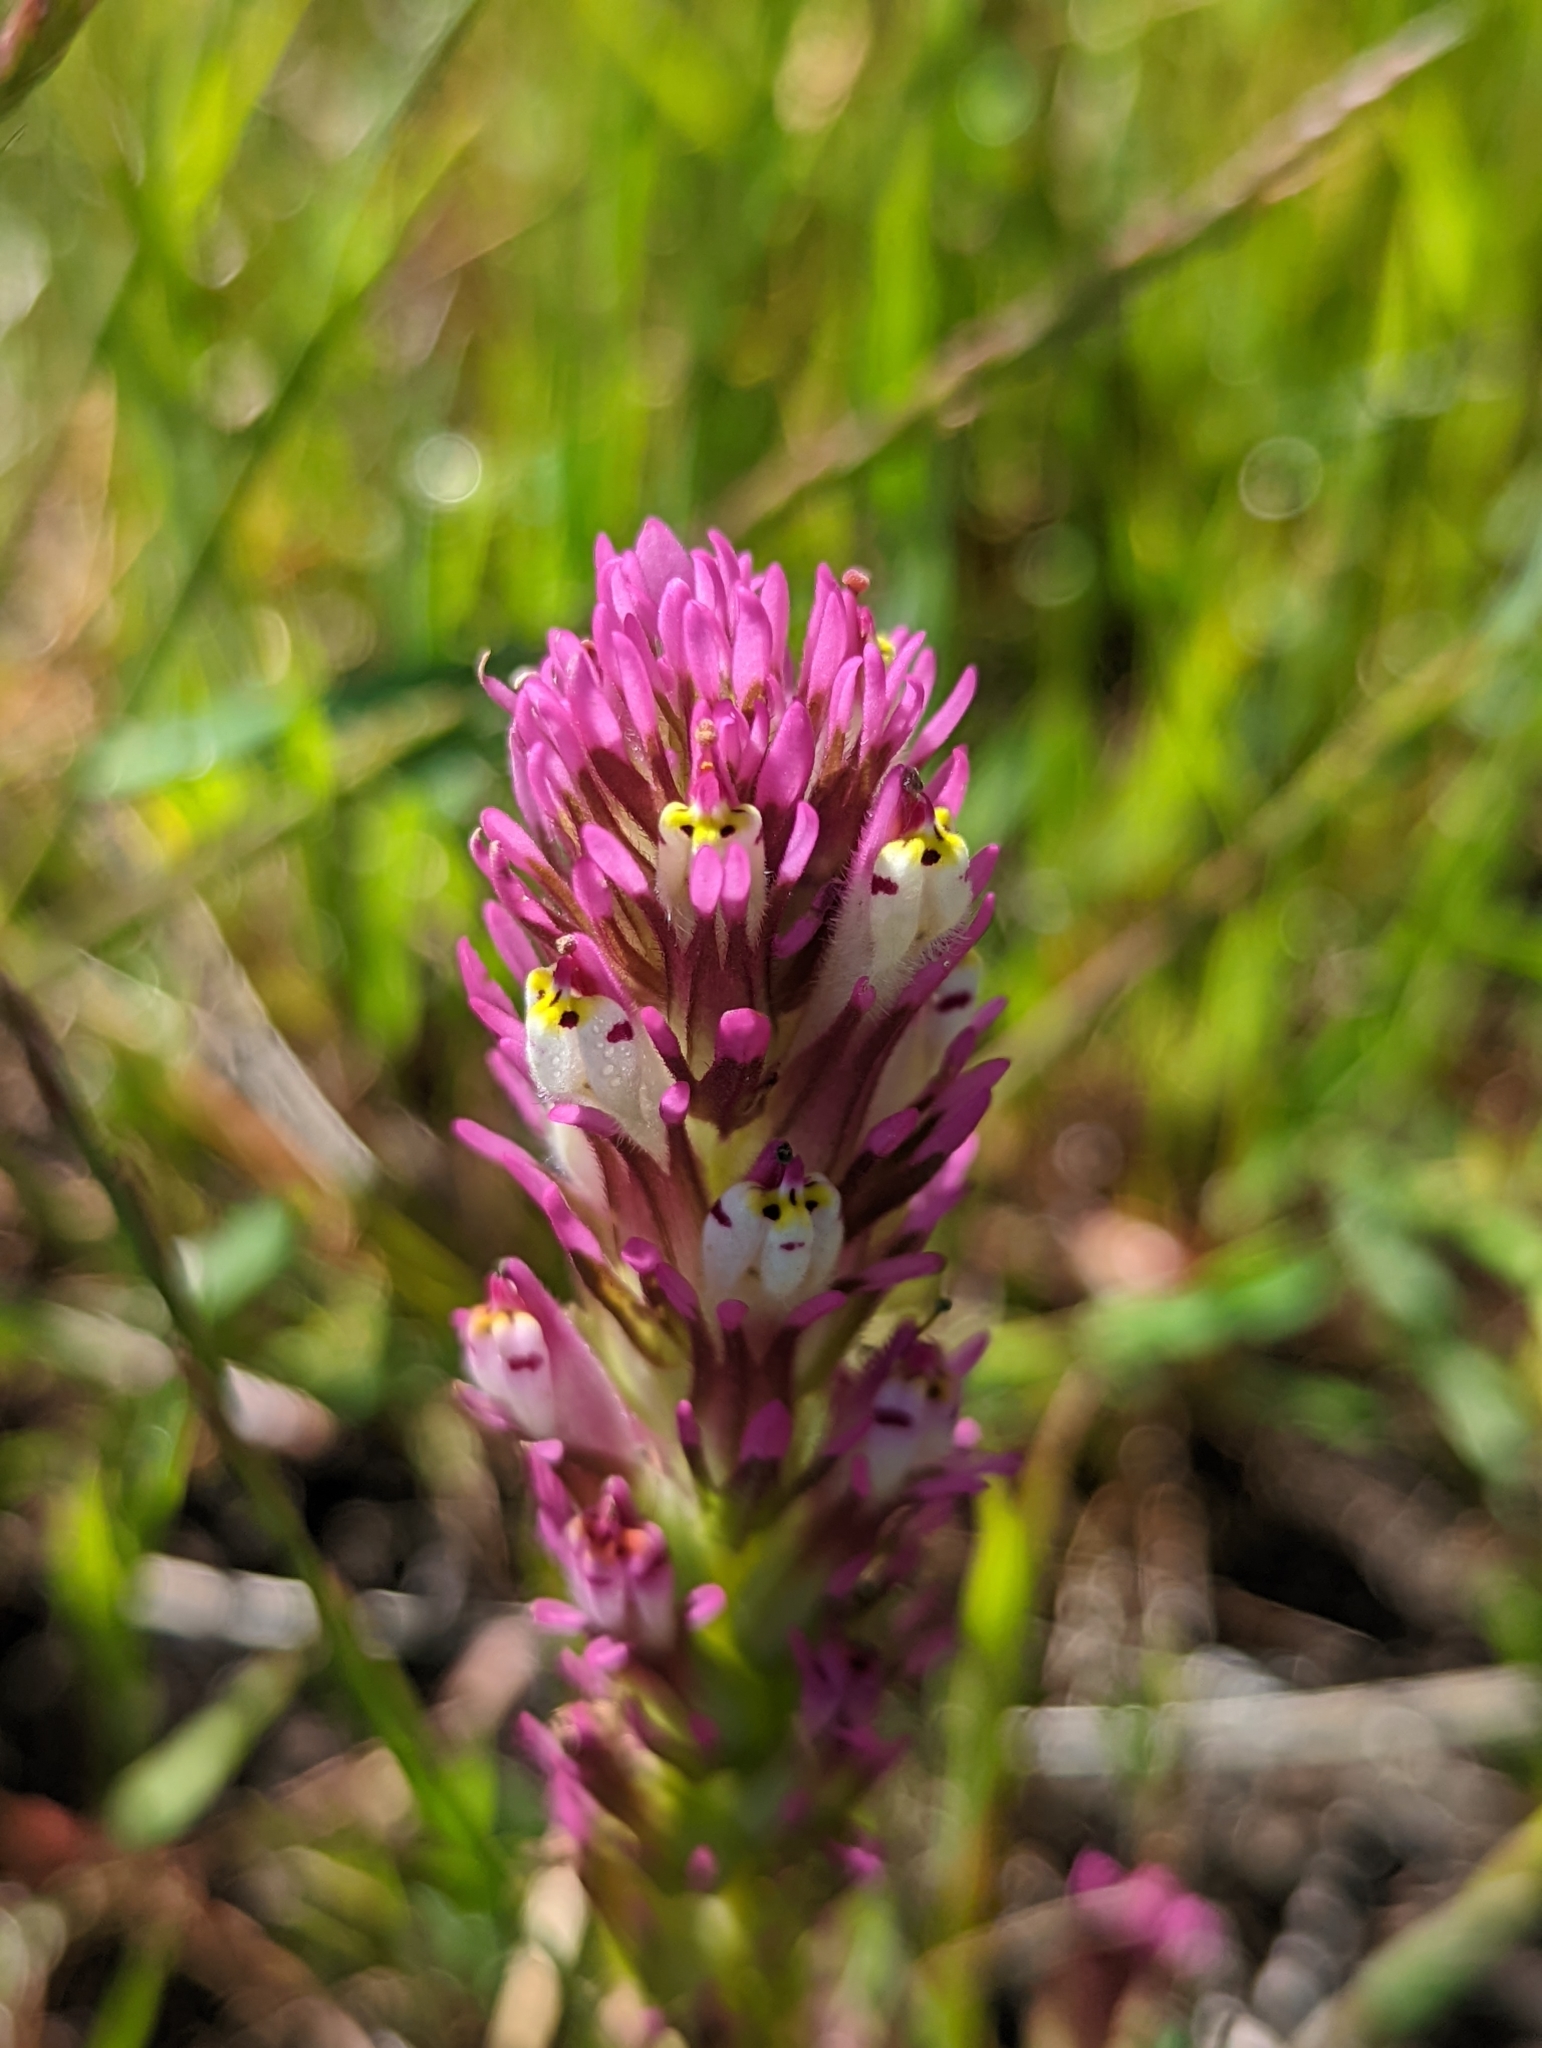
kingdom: Plantae
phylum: Tracheophyta
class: Magnoliopsida
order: Lamiales
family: Orobanchaceae
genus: Castilleja
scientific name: Castilleja densiflora
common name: Dense-flower indian paintbrush
